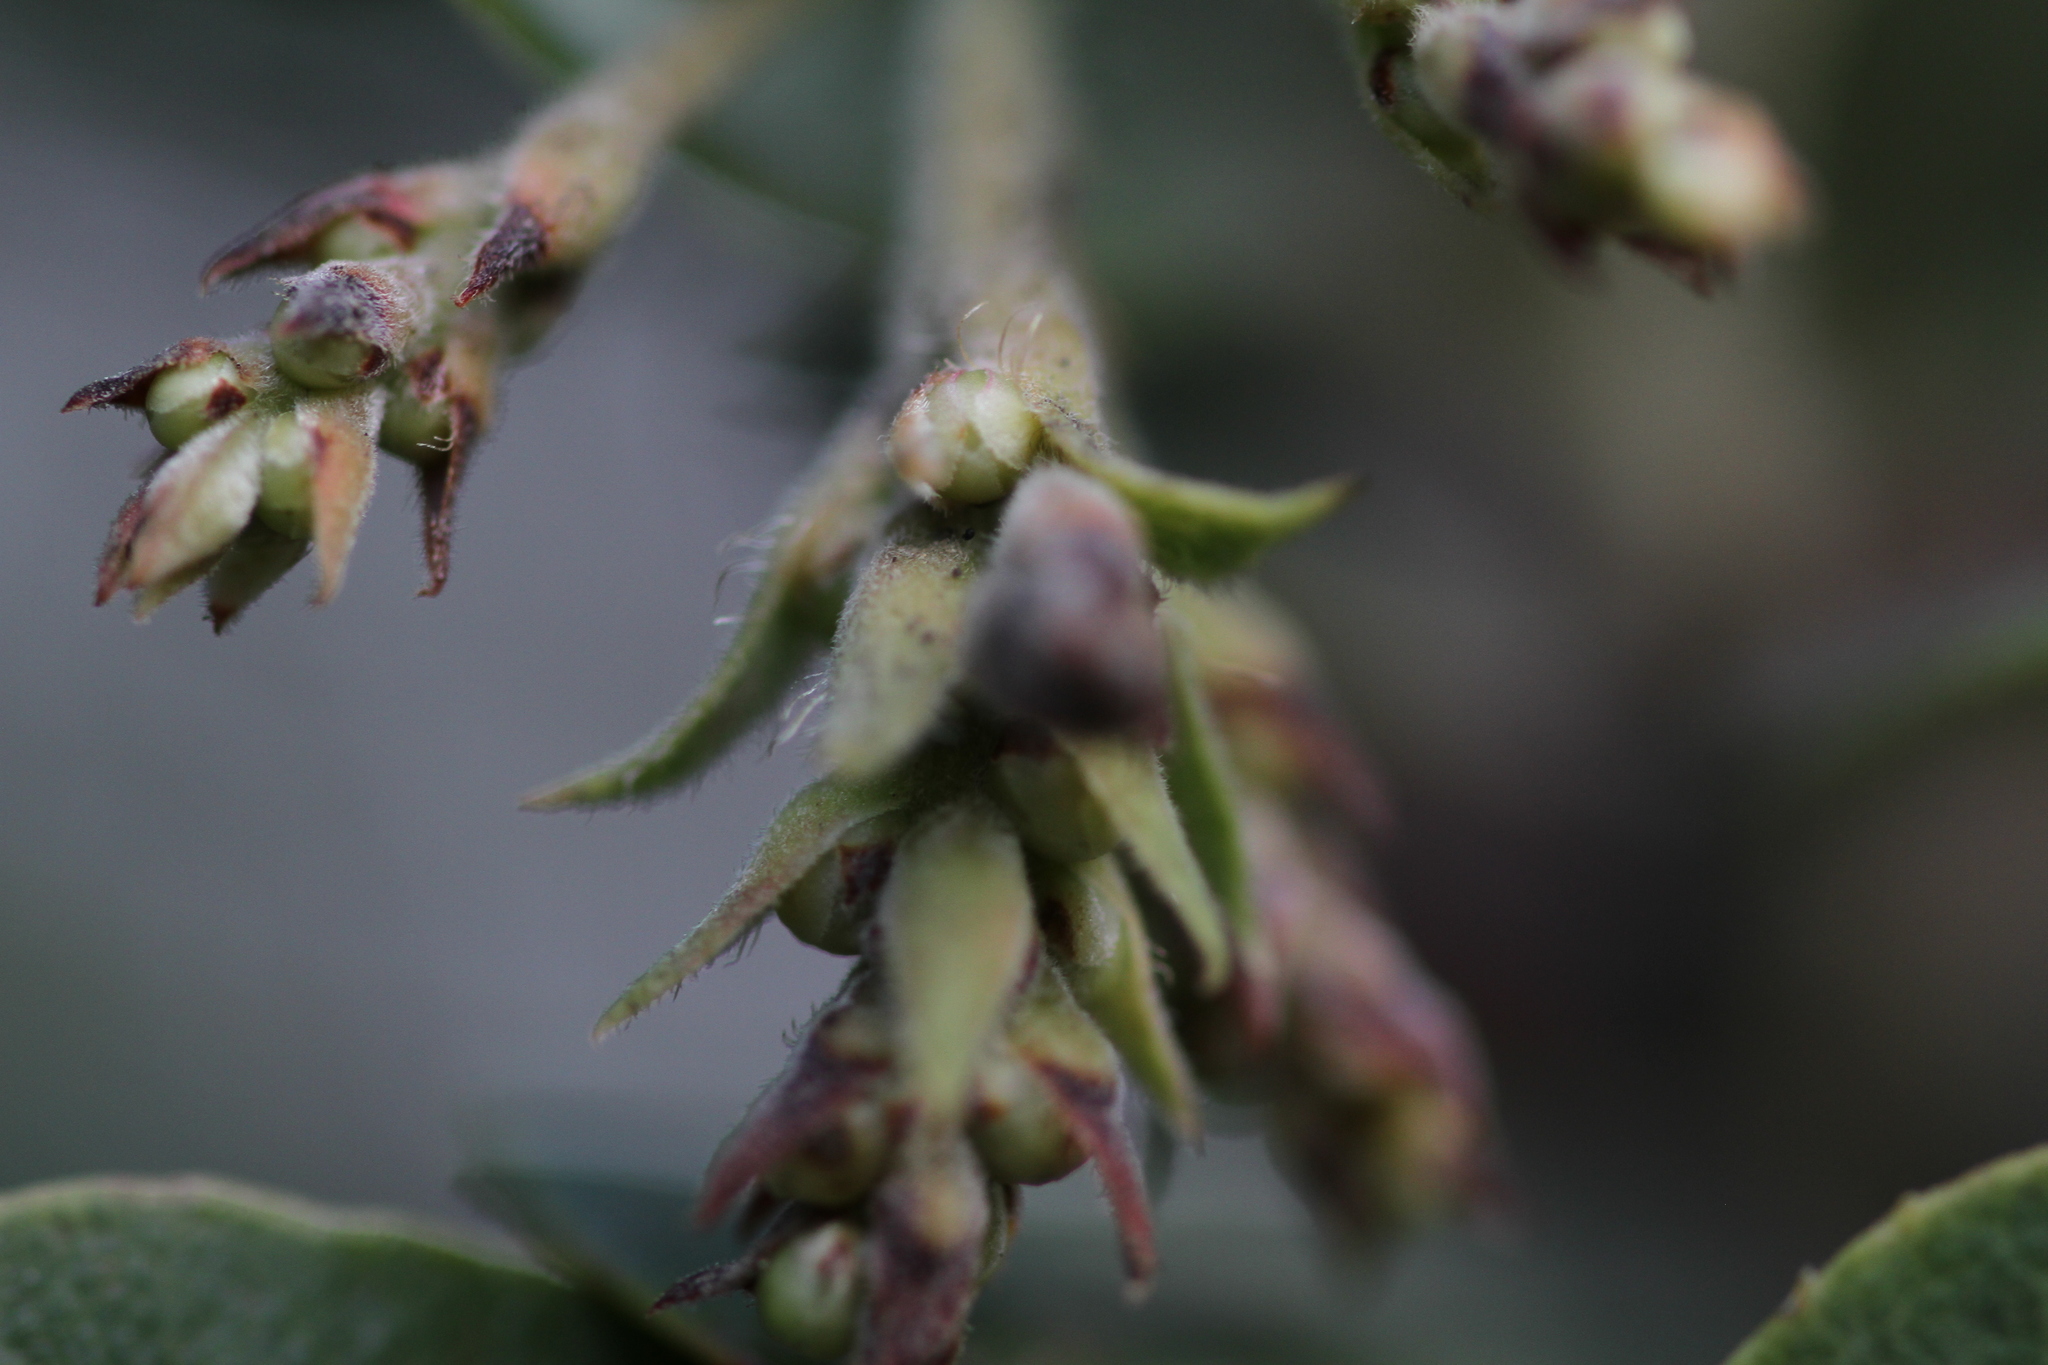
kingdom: Plantae
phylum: Tracheophyta
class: Magnoliopsida
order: Ericales
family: Ericaceae
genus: Arctostaphylos
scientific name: Arctostaphylos crustacea
